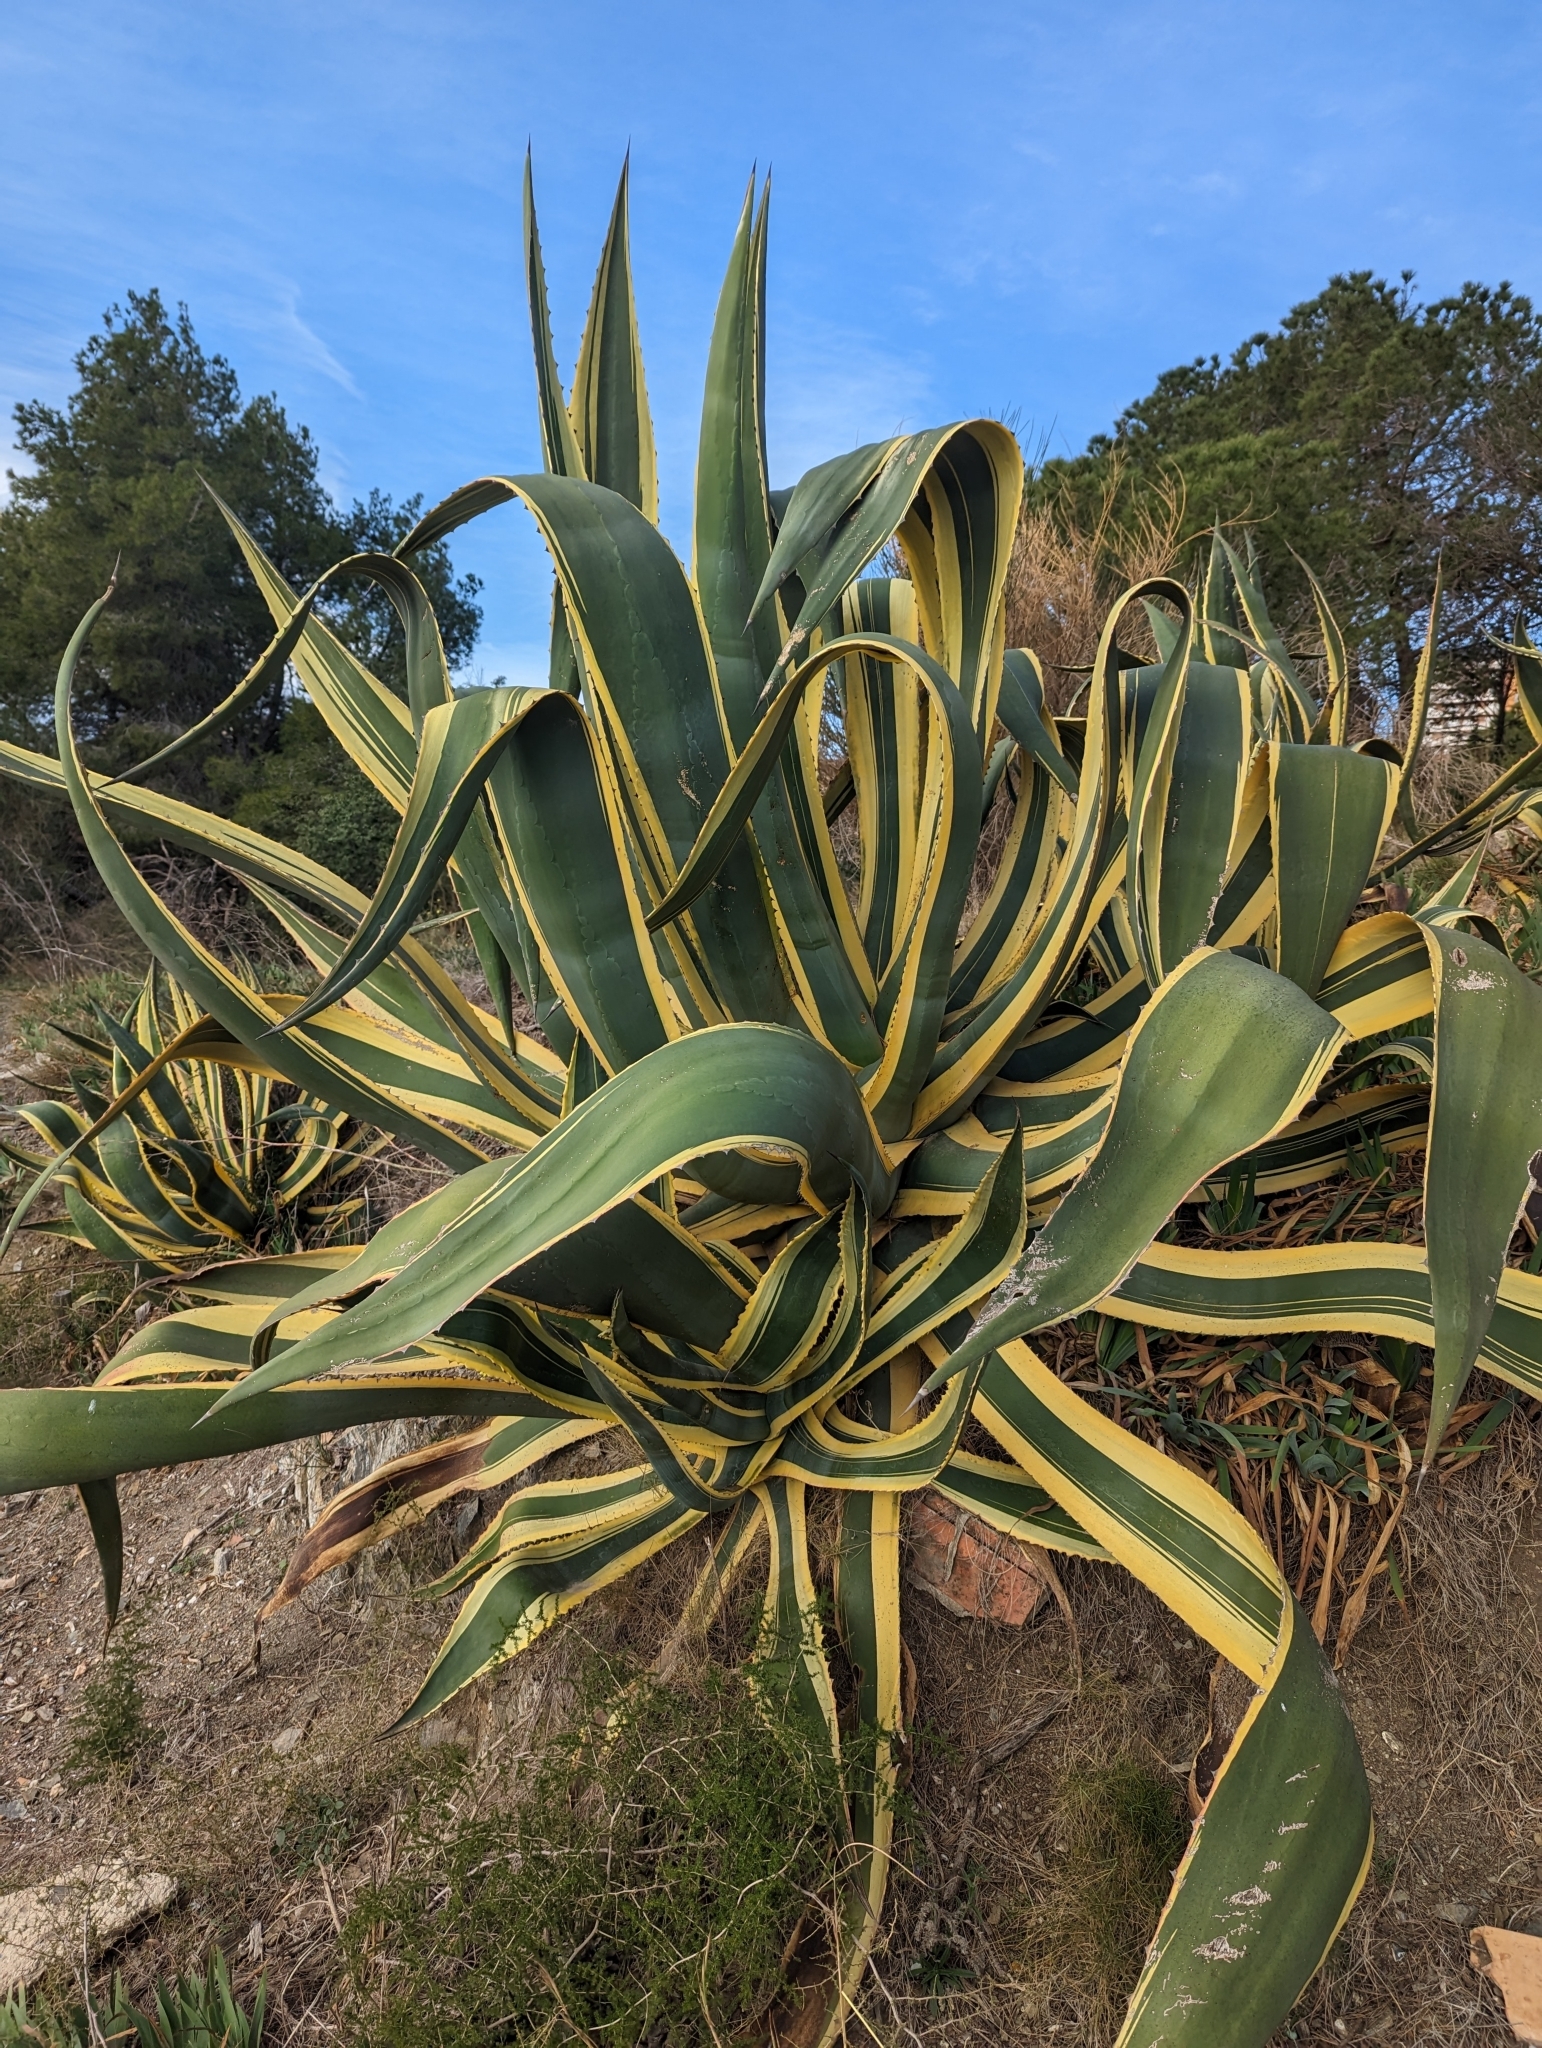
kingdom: Plantae
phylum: Tracheophyta
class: Liliopsida
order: Asparagales
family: Asparagaceae
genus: Agave
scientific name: Agave americana
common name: Centuryplant
